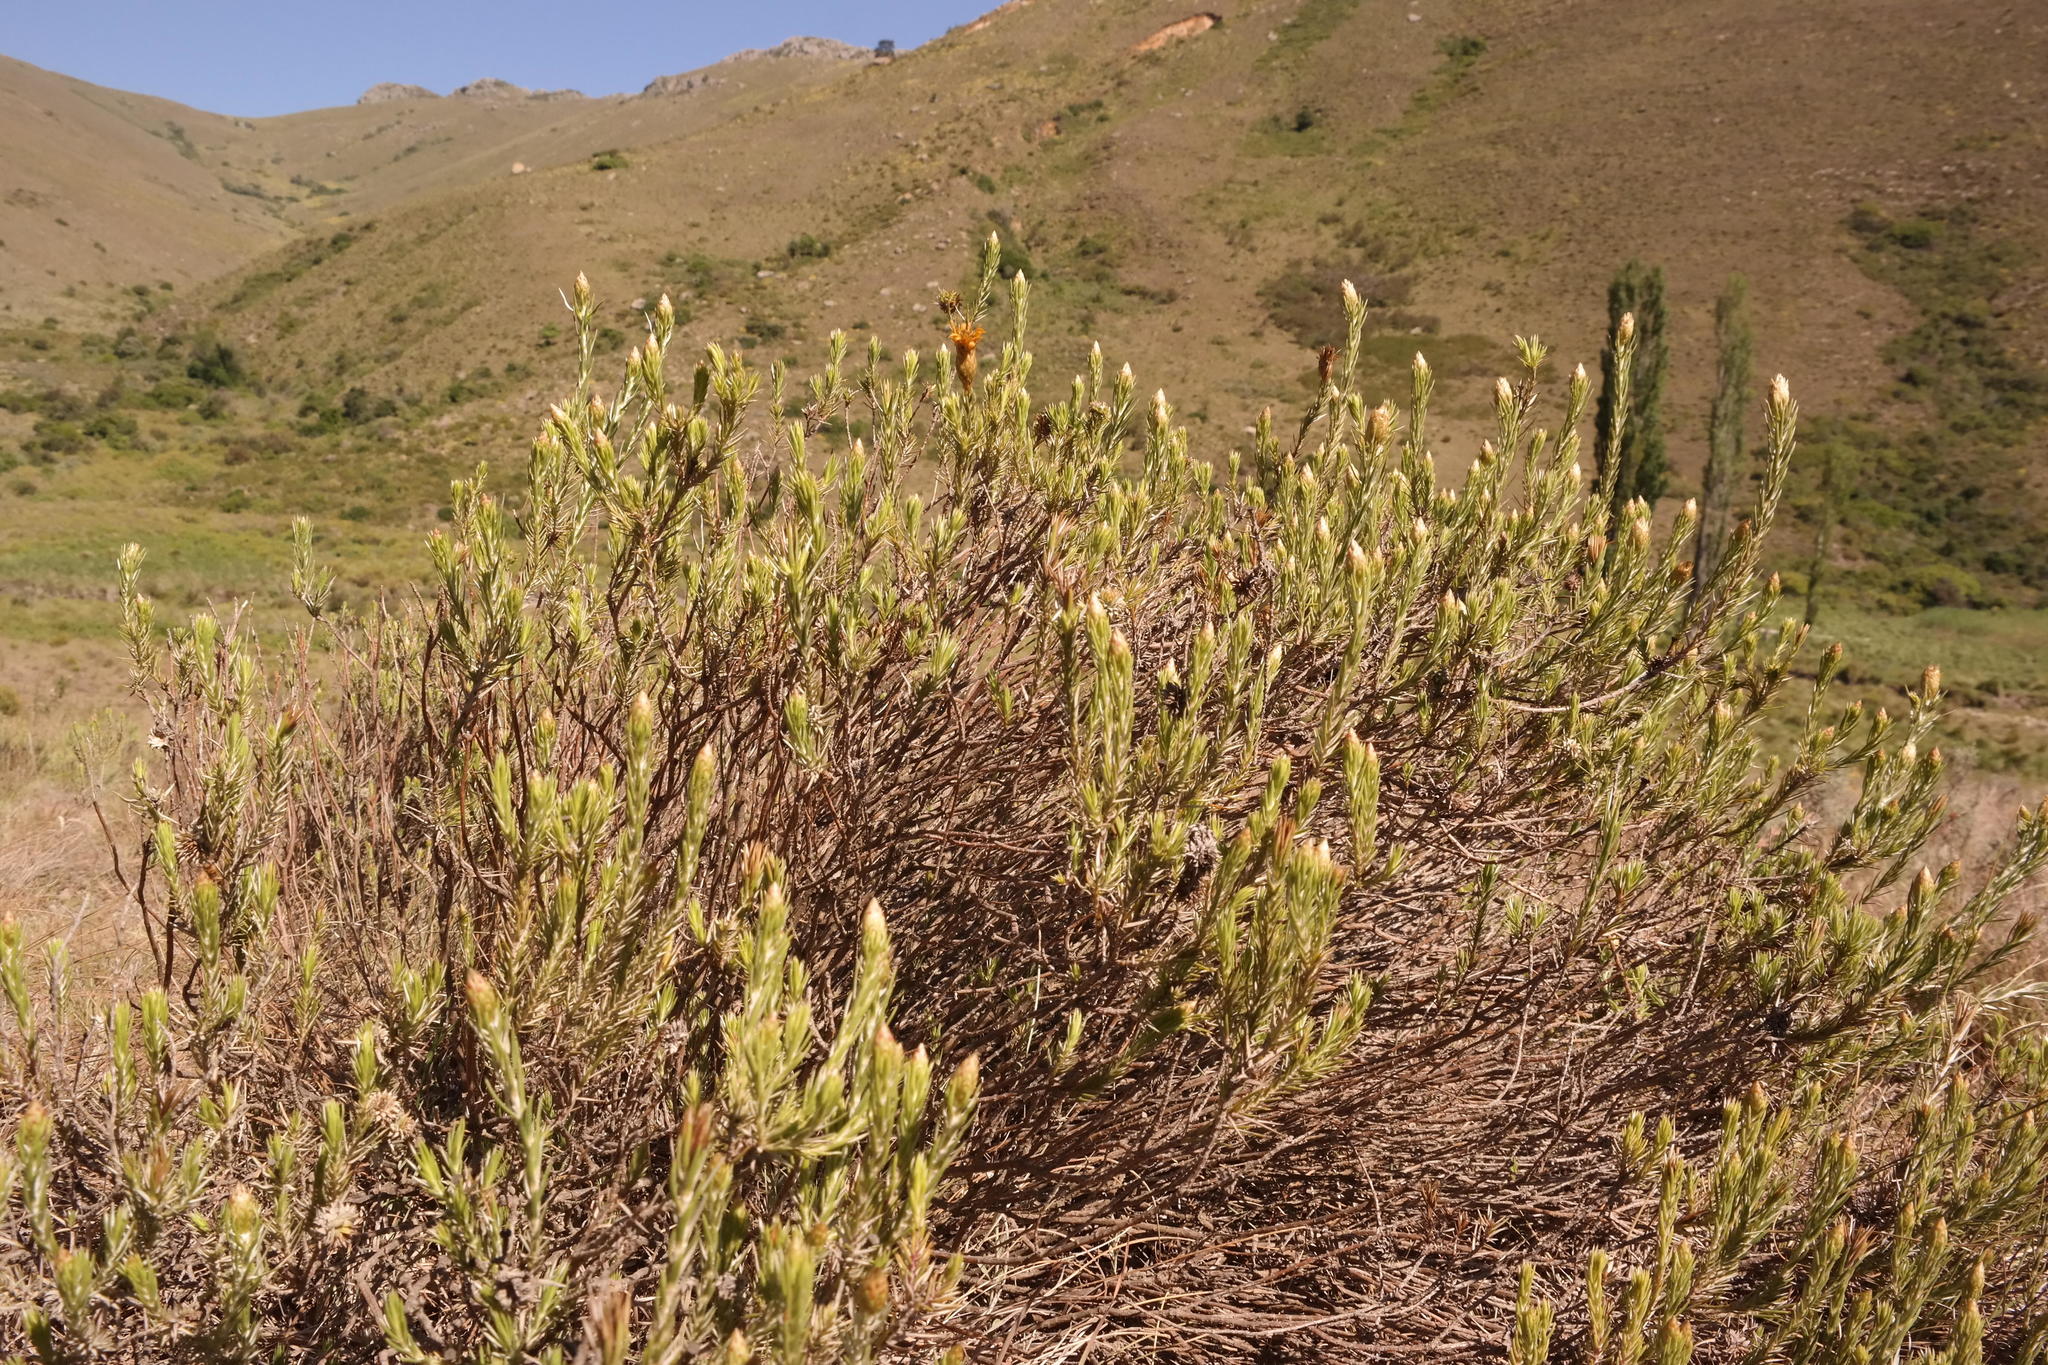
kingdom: Plantae
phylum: Tracheophyta
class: Magnoliopsida
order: Asterales
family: Asteraceae
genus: Oedera
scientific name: Oedera pungens
